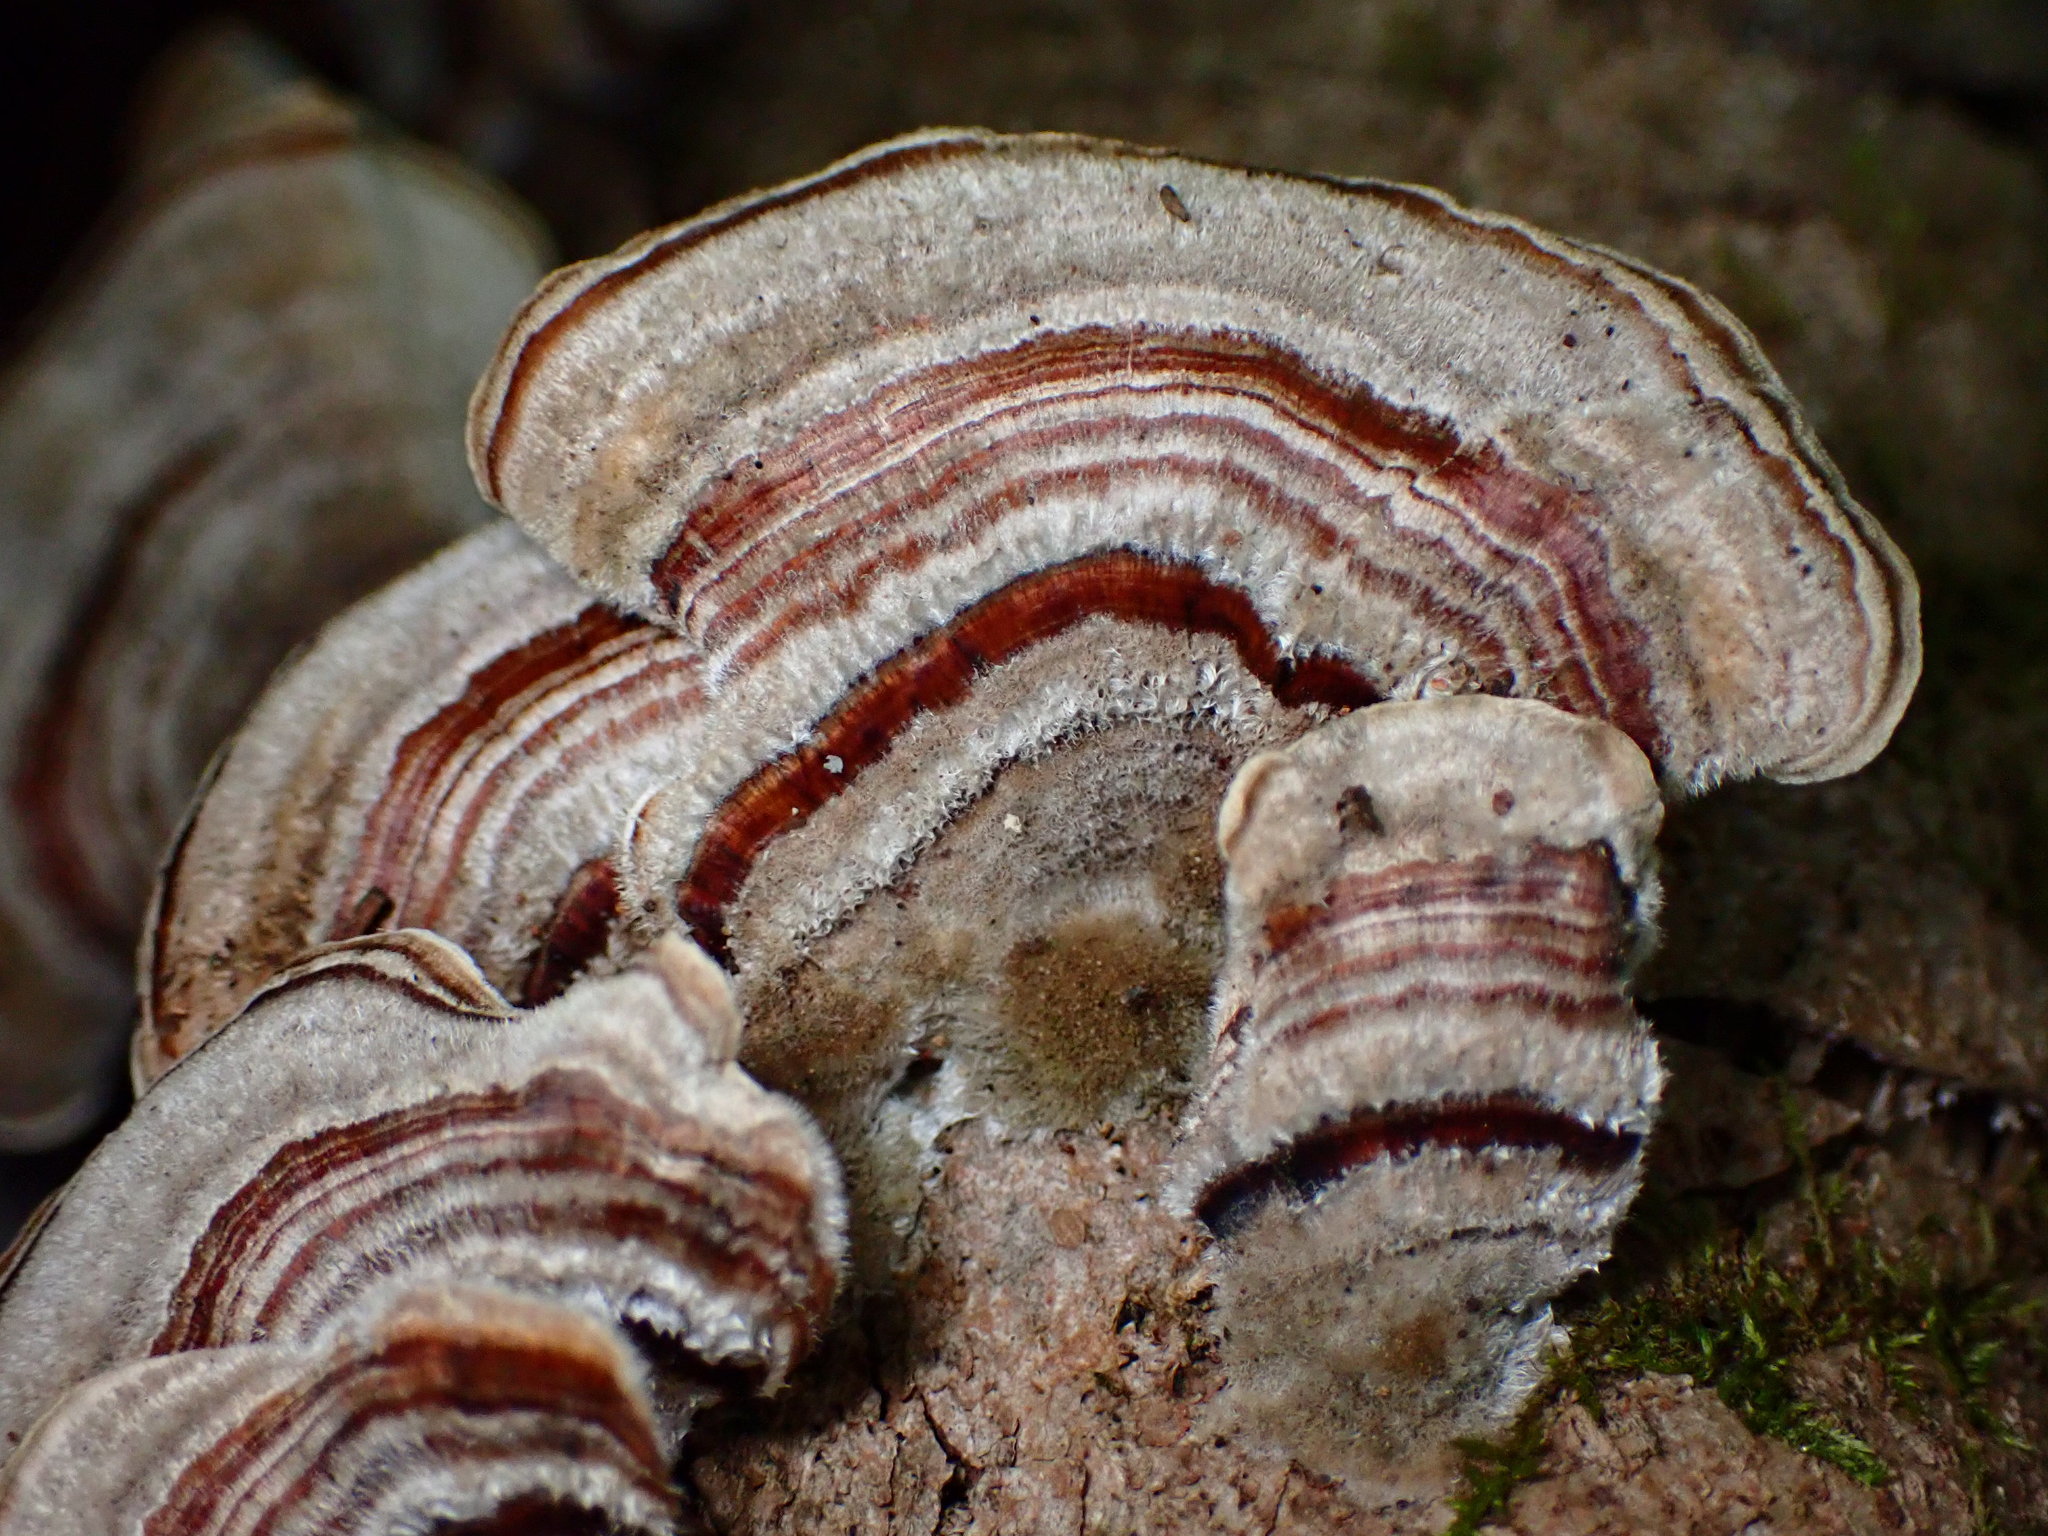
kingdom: Fungi
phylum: Basidiomycota
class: Agaricomycetes
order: Polyporales
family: Polyporaceae
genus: Trametes
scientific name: Trametes versicolor
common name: Turkeytail
